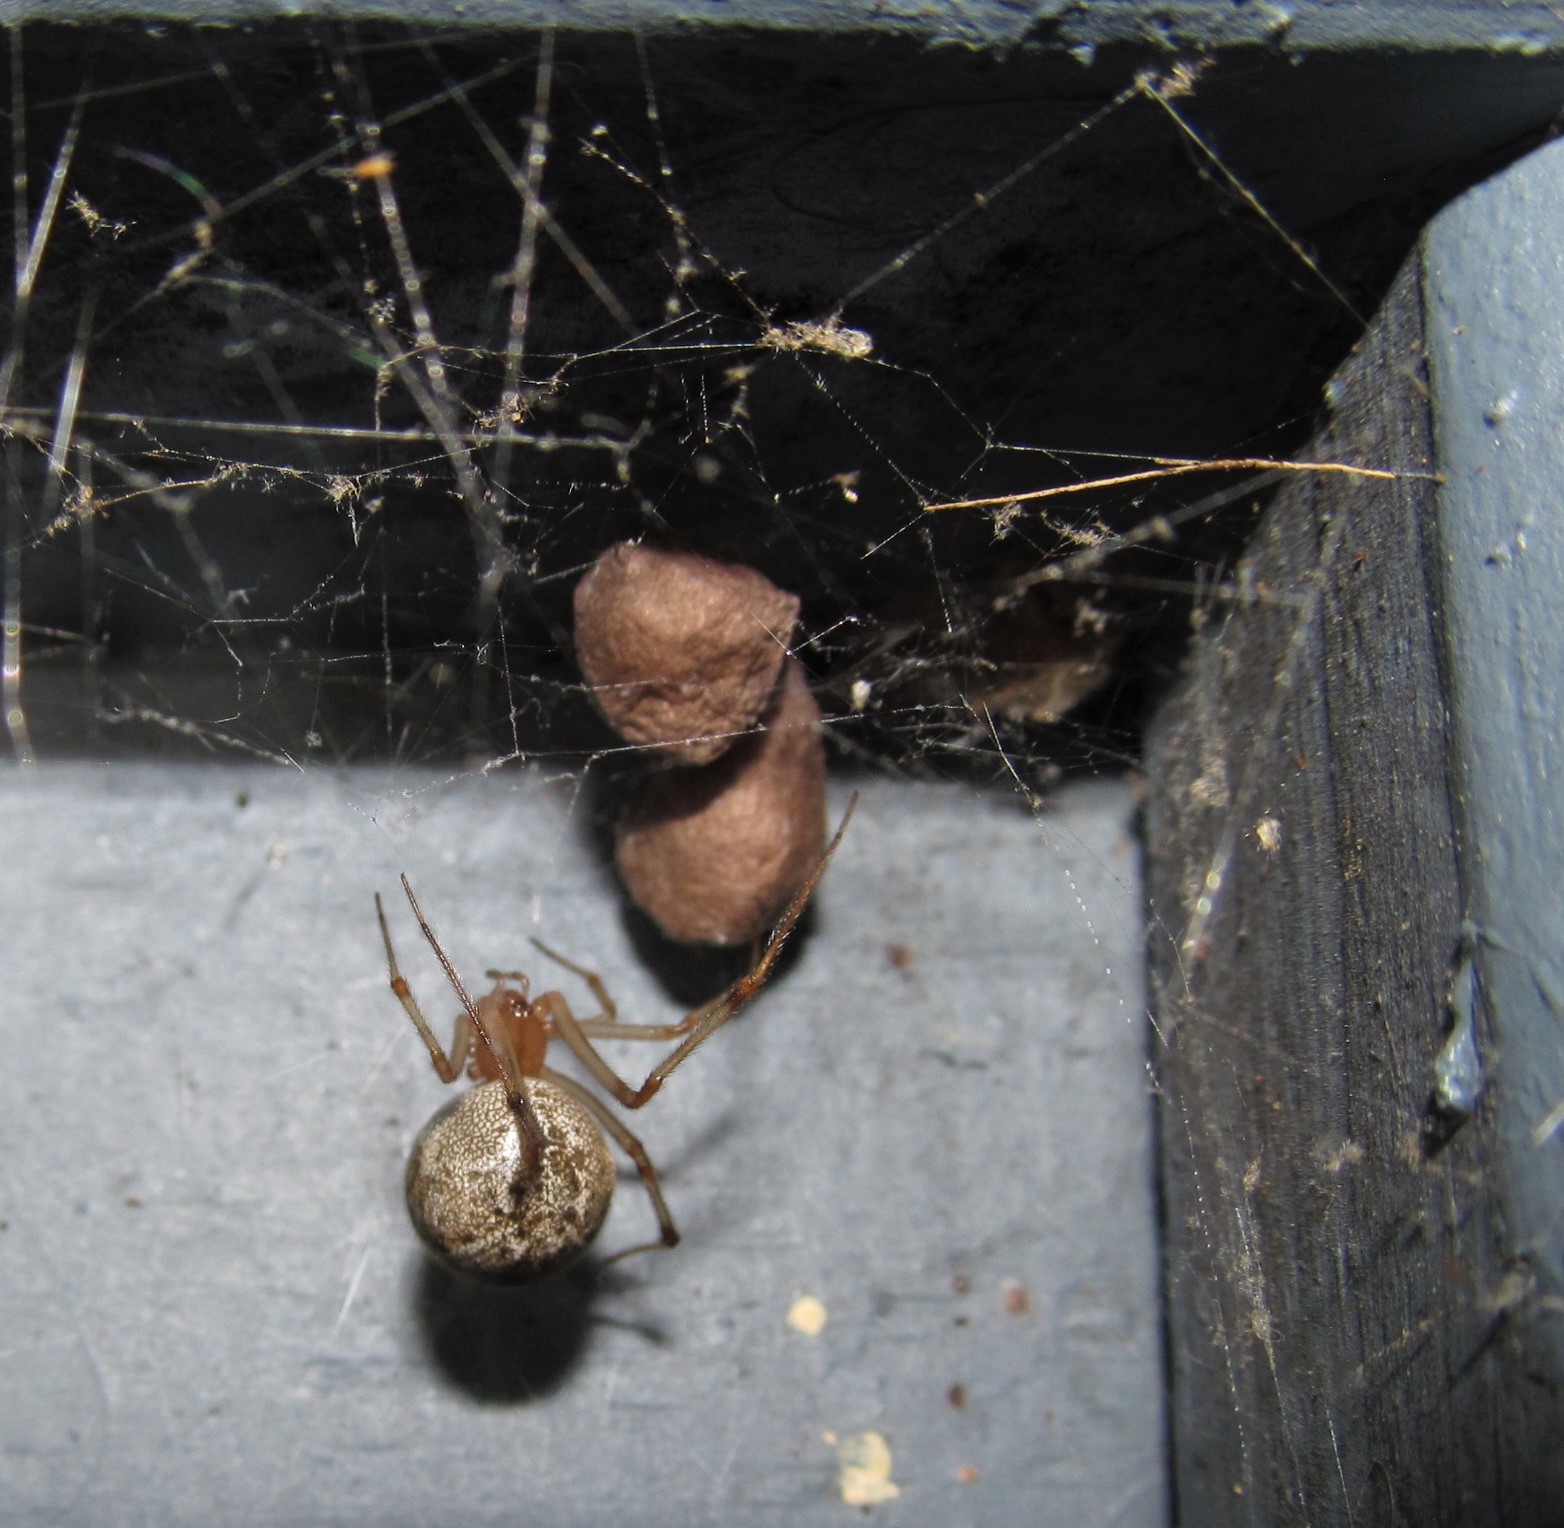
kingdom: Animalia
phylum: Arthropoda
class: Arachnida
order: Araneae
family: Theridiidae
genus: Parasteatoda
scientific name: Parasteatoda tepidariorum
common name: Common house spider
